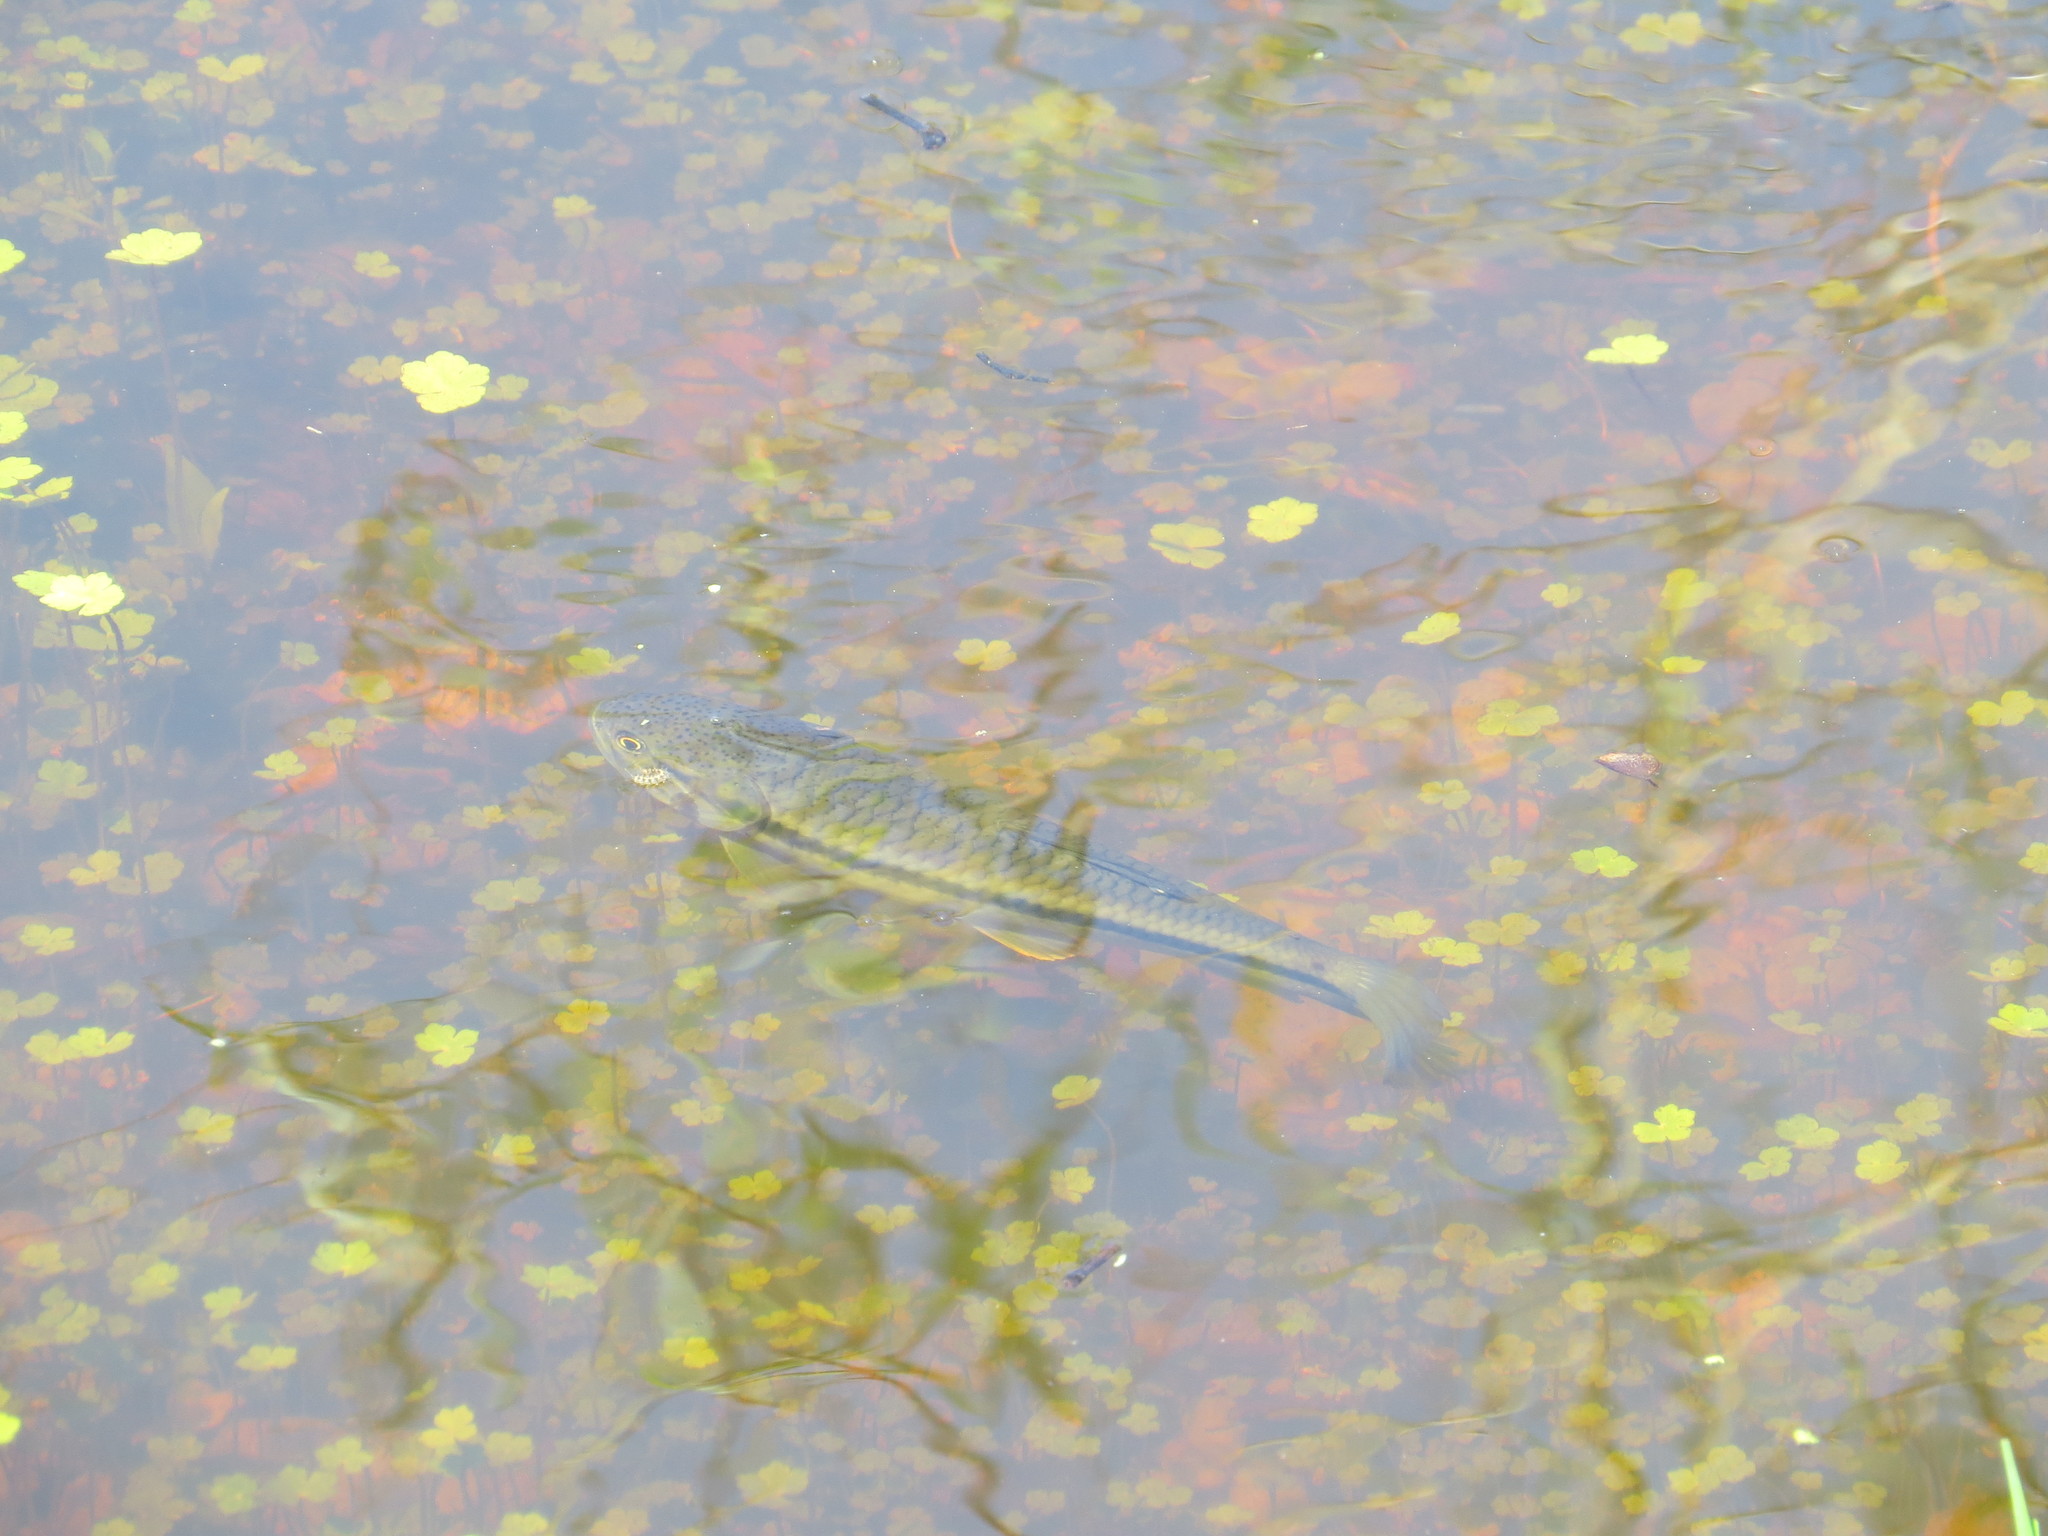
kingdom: Animalia
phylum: Chordata
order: Characiformes
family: Erythrinidae
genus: Hoplerythrinus
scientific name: Hoplerythrinus unitaeniatus
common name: Aimara
